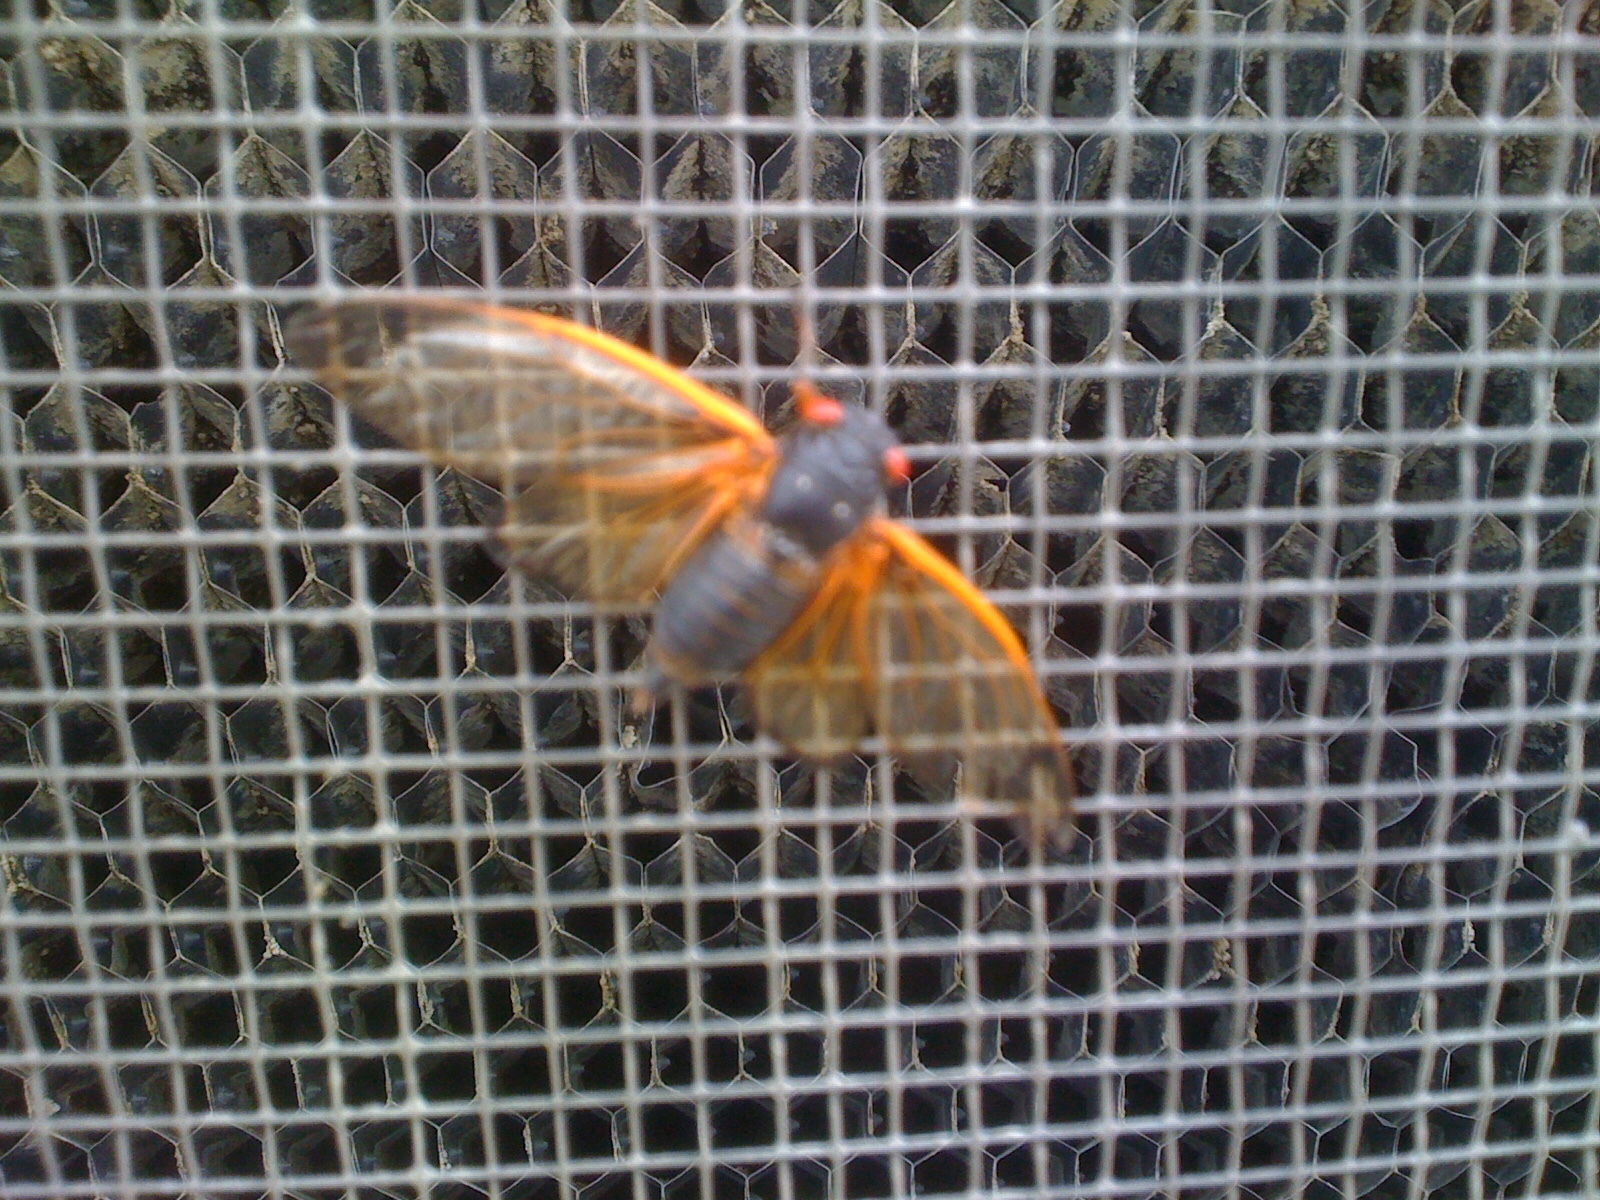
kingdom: Animalia
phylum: Arthropoda
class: Insecta
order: Hemiptera
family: Cicadidae
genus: Magicicada
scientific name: Magicicada
